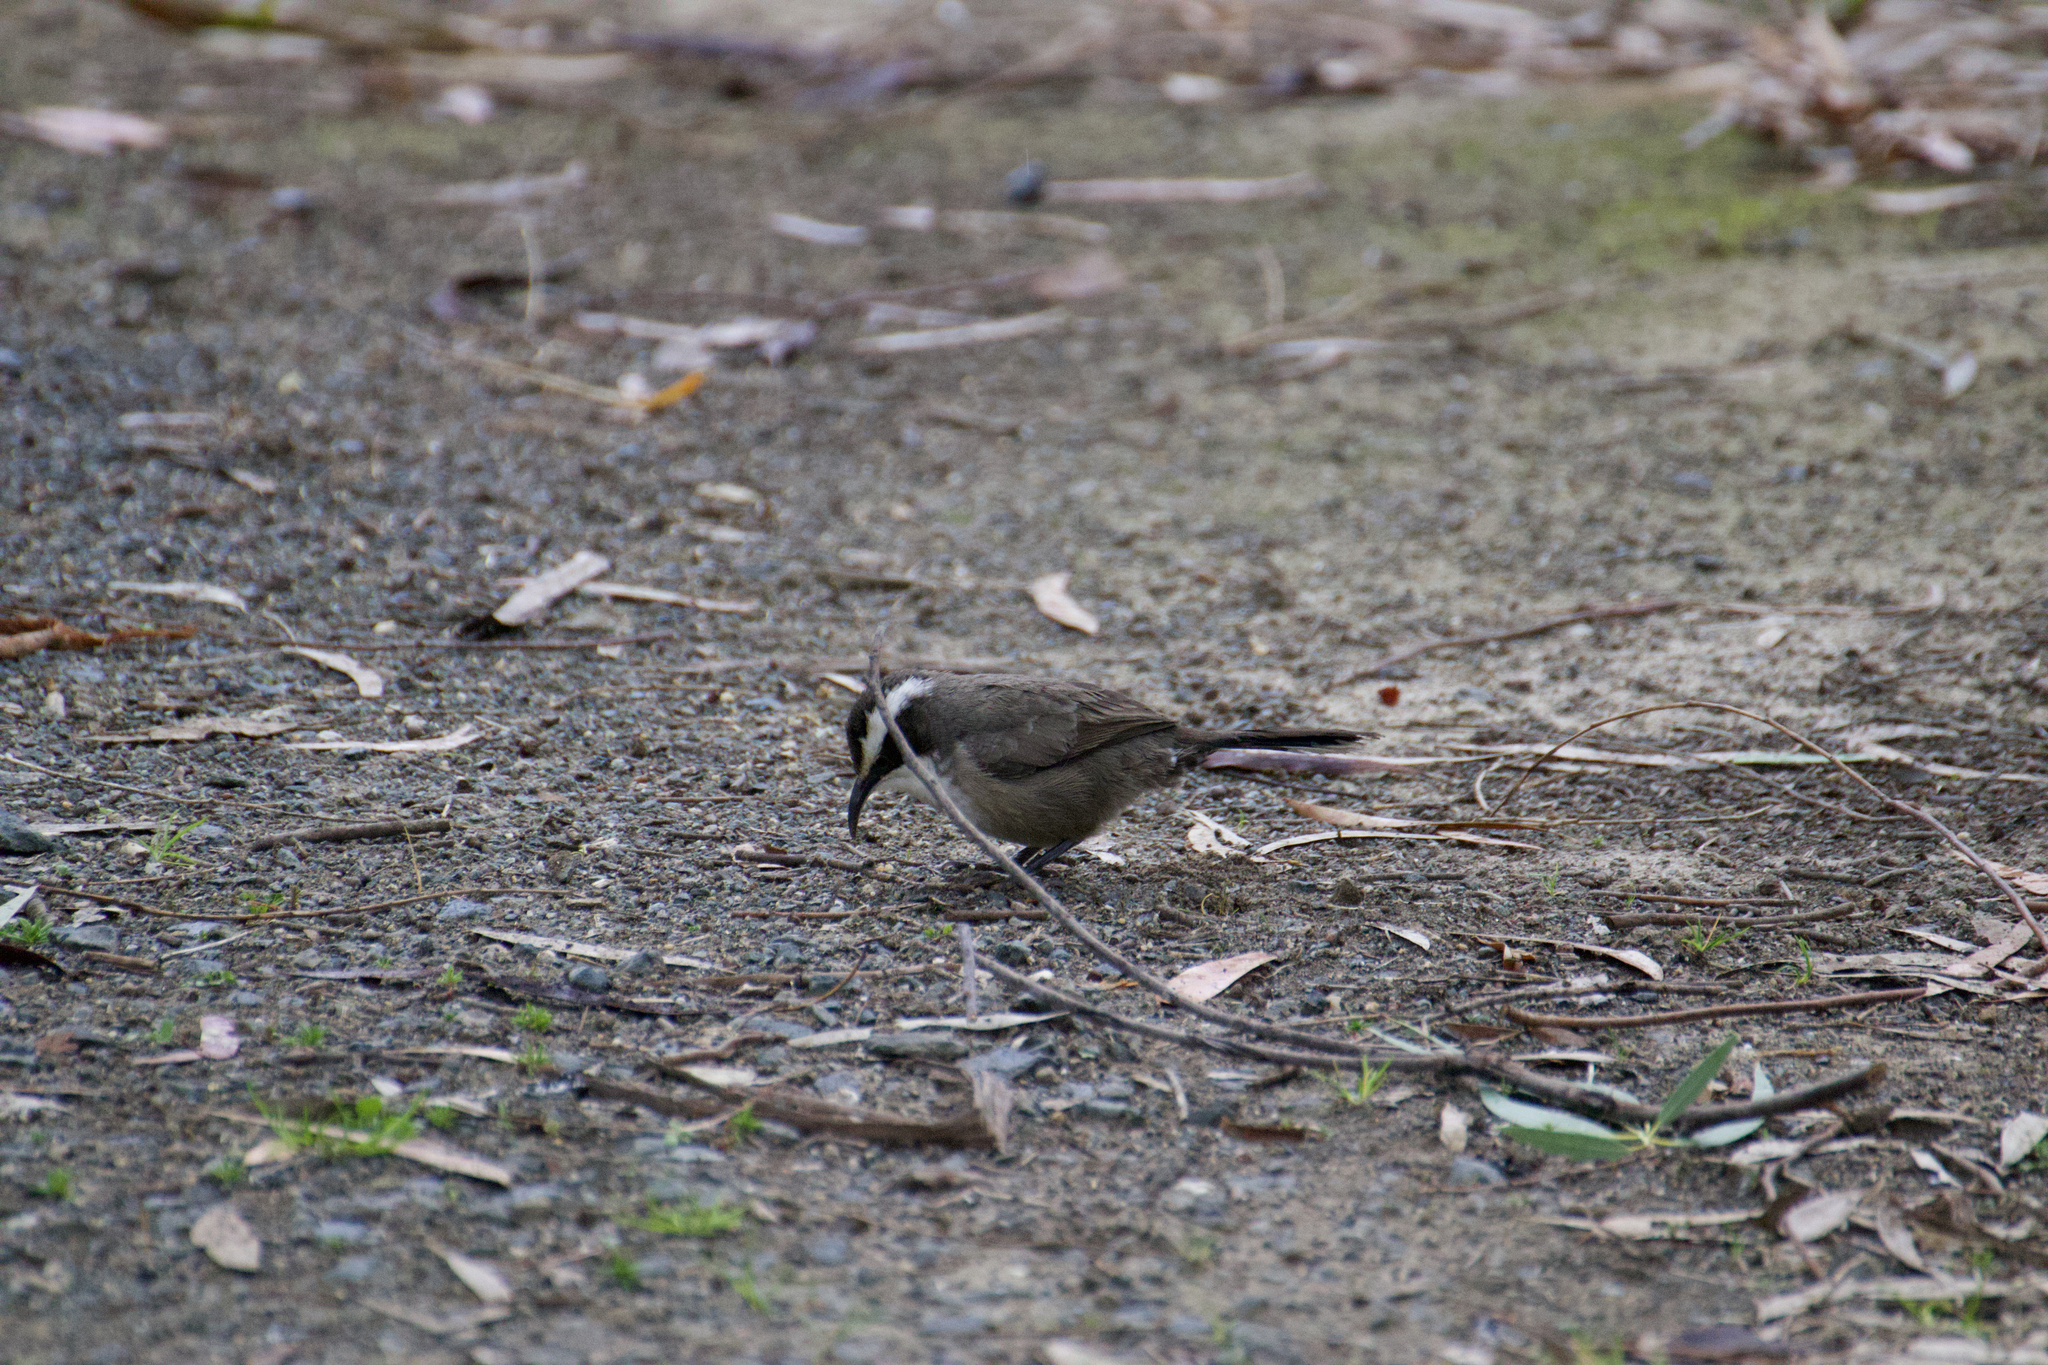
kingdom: Animalia
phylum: Chordata
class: Aves
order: Passeriformes
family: Pomatostomidae
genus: Pomatostomus
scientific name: Pomatostomus superciliosus
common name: White-browed babbler
